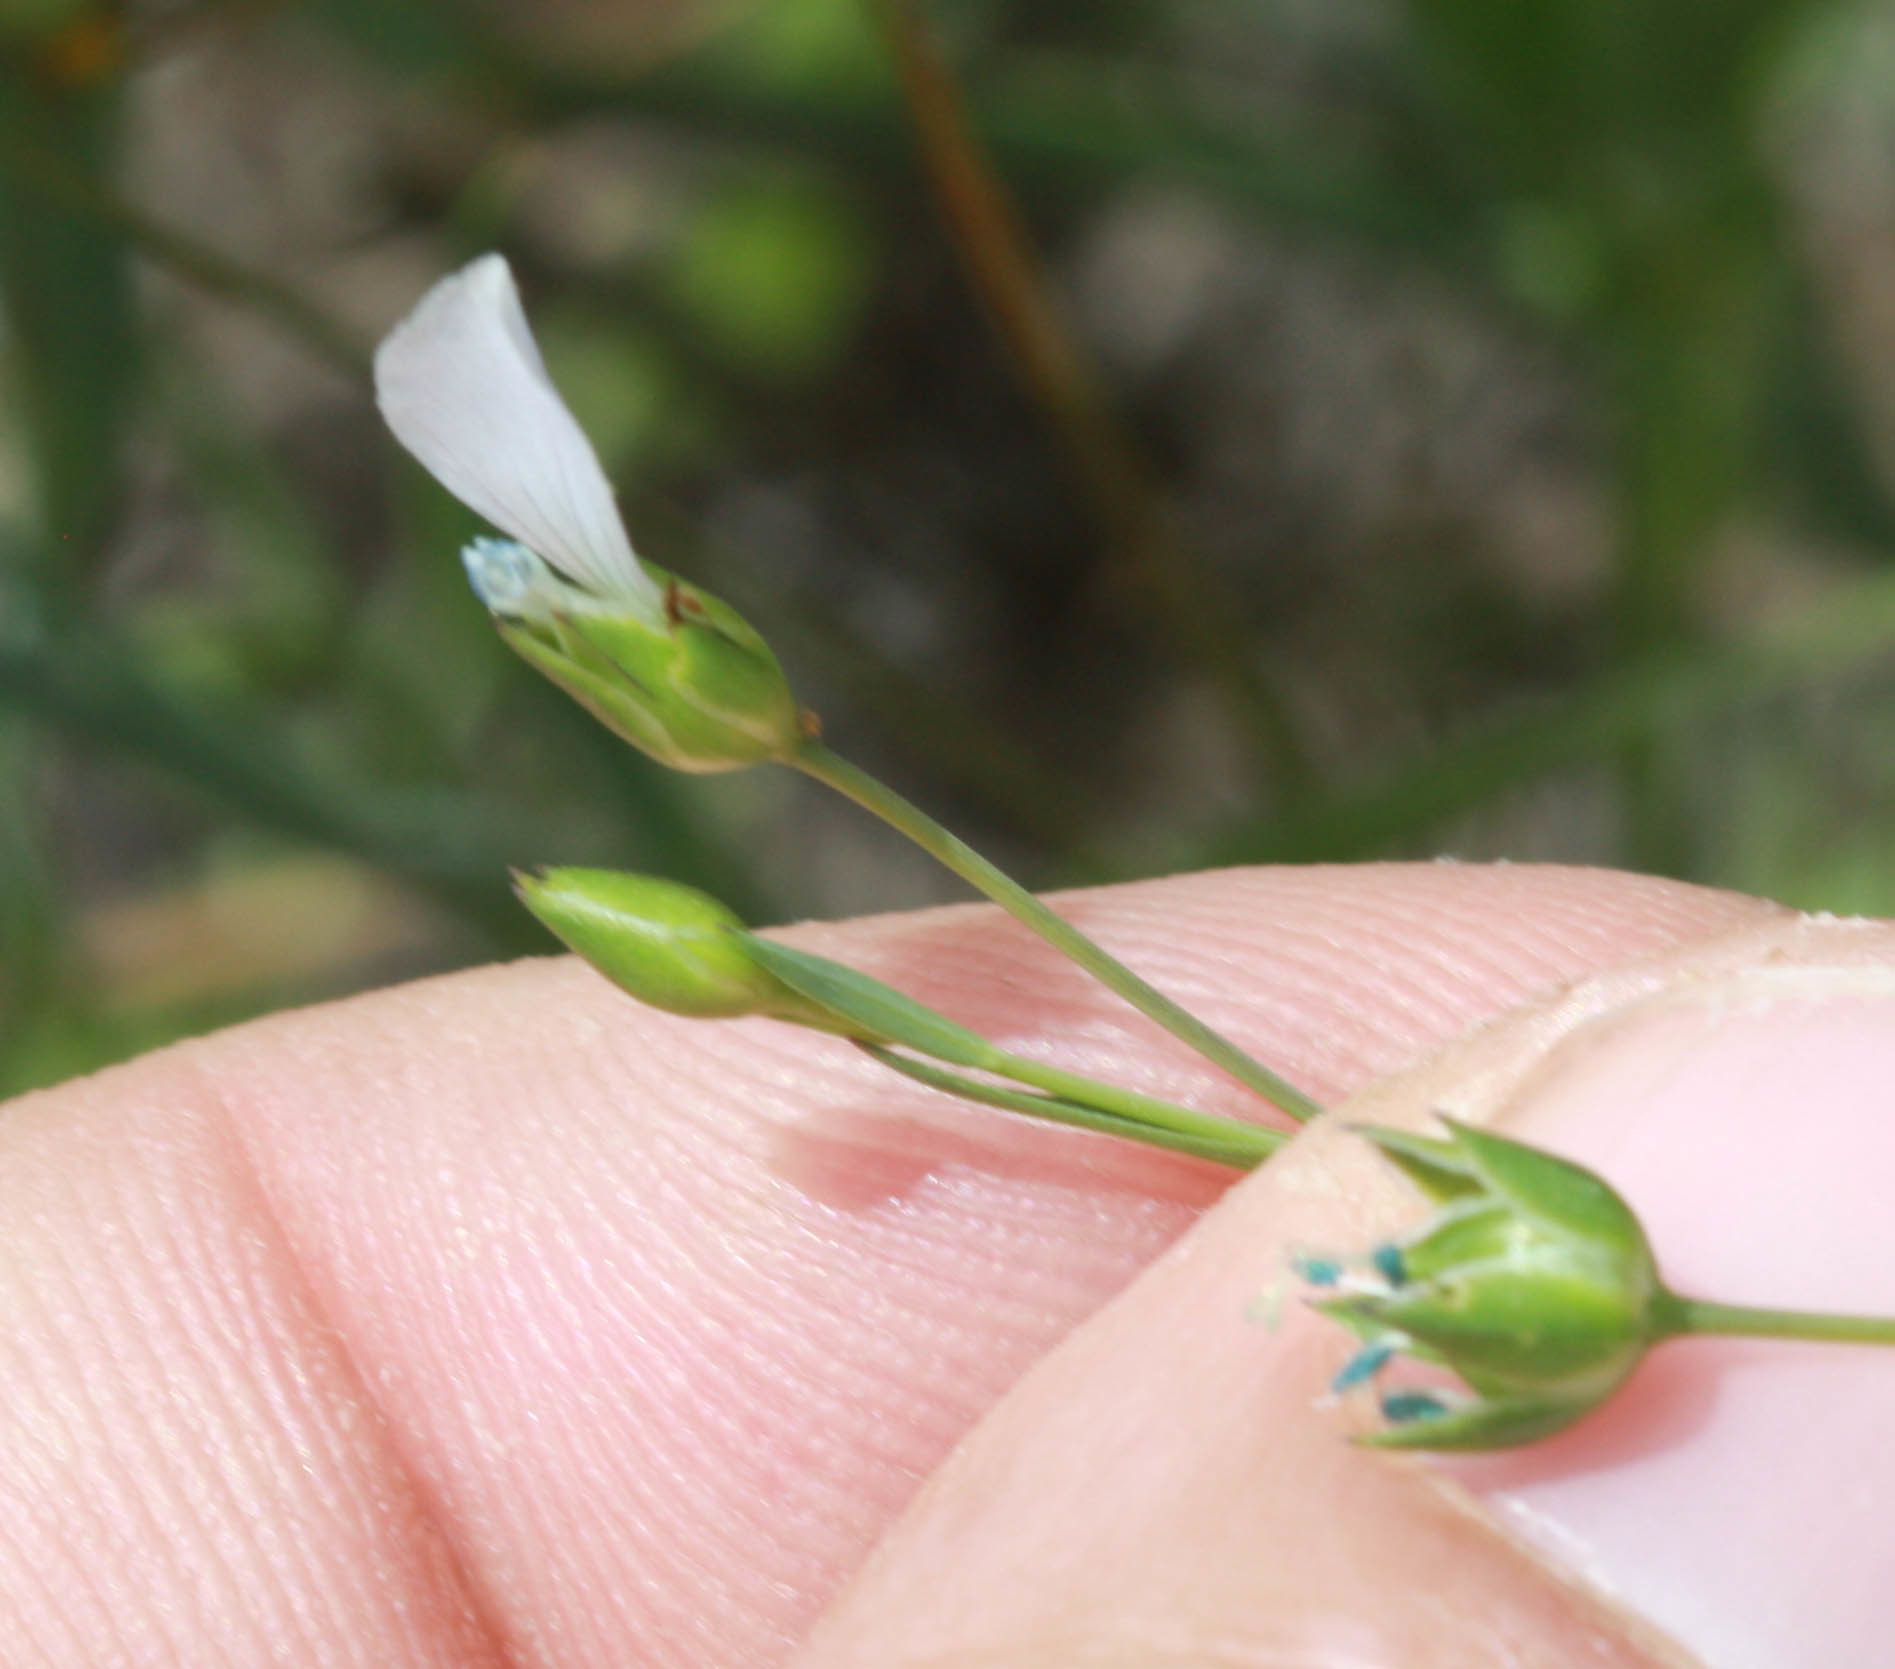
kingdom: Plantae
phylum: Tracheophyta
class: Magnoliopsida
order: Malpighiales
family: Linaceae
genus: Linum
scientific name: Linum bienne
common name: Pale flax
